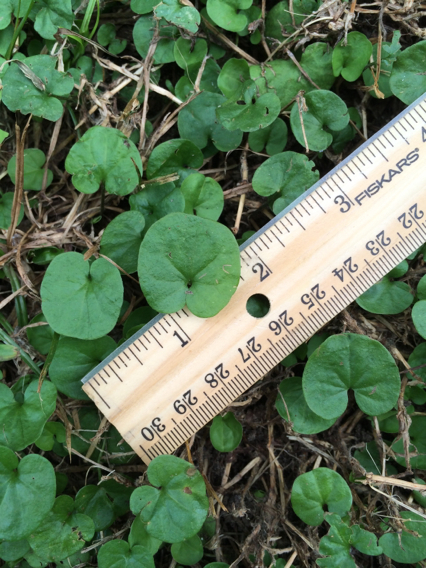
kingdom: Plantae
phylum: Tracheophyta
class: Magnoliopsida
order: Solanales
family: Convolvulaceae
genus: Dichondra
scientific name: Dichondra carolinensis
